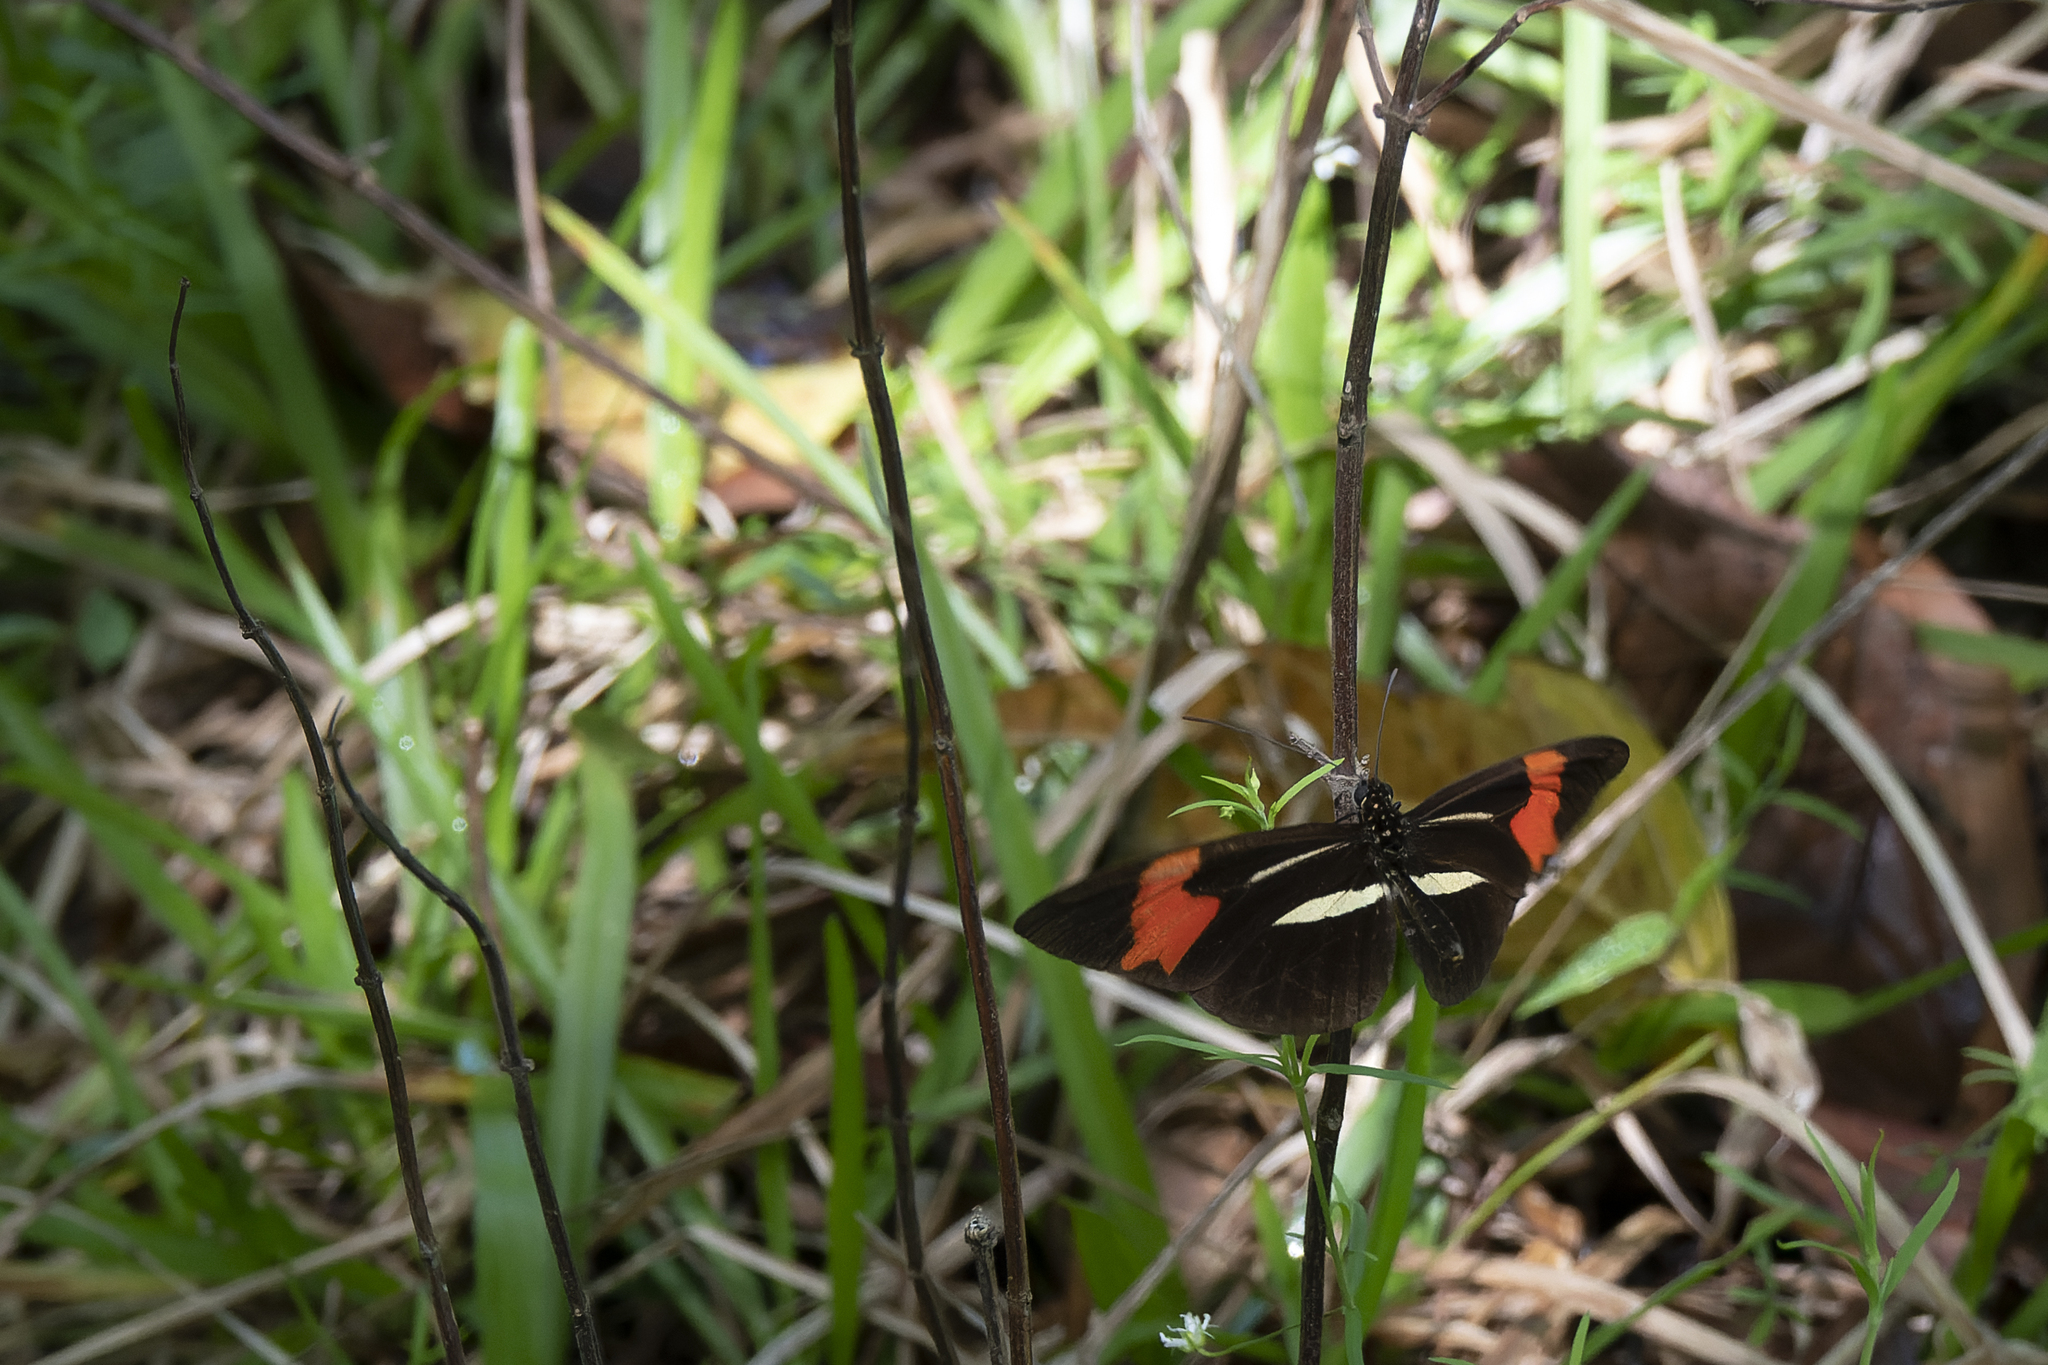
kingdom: Animalia
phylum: Arthropoda
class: Insecta
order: Lepidoptera
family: Nymphalidae
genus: Heliconius
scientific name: Heliconius erato
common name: Common patch longwing
